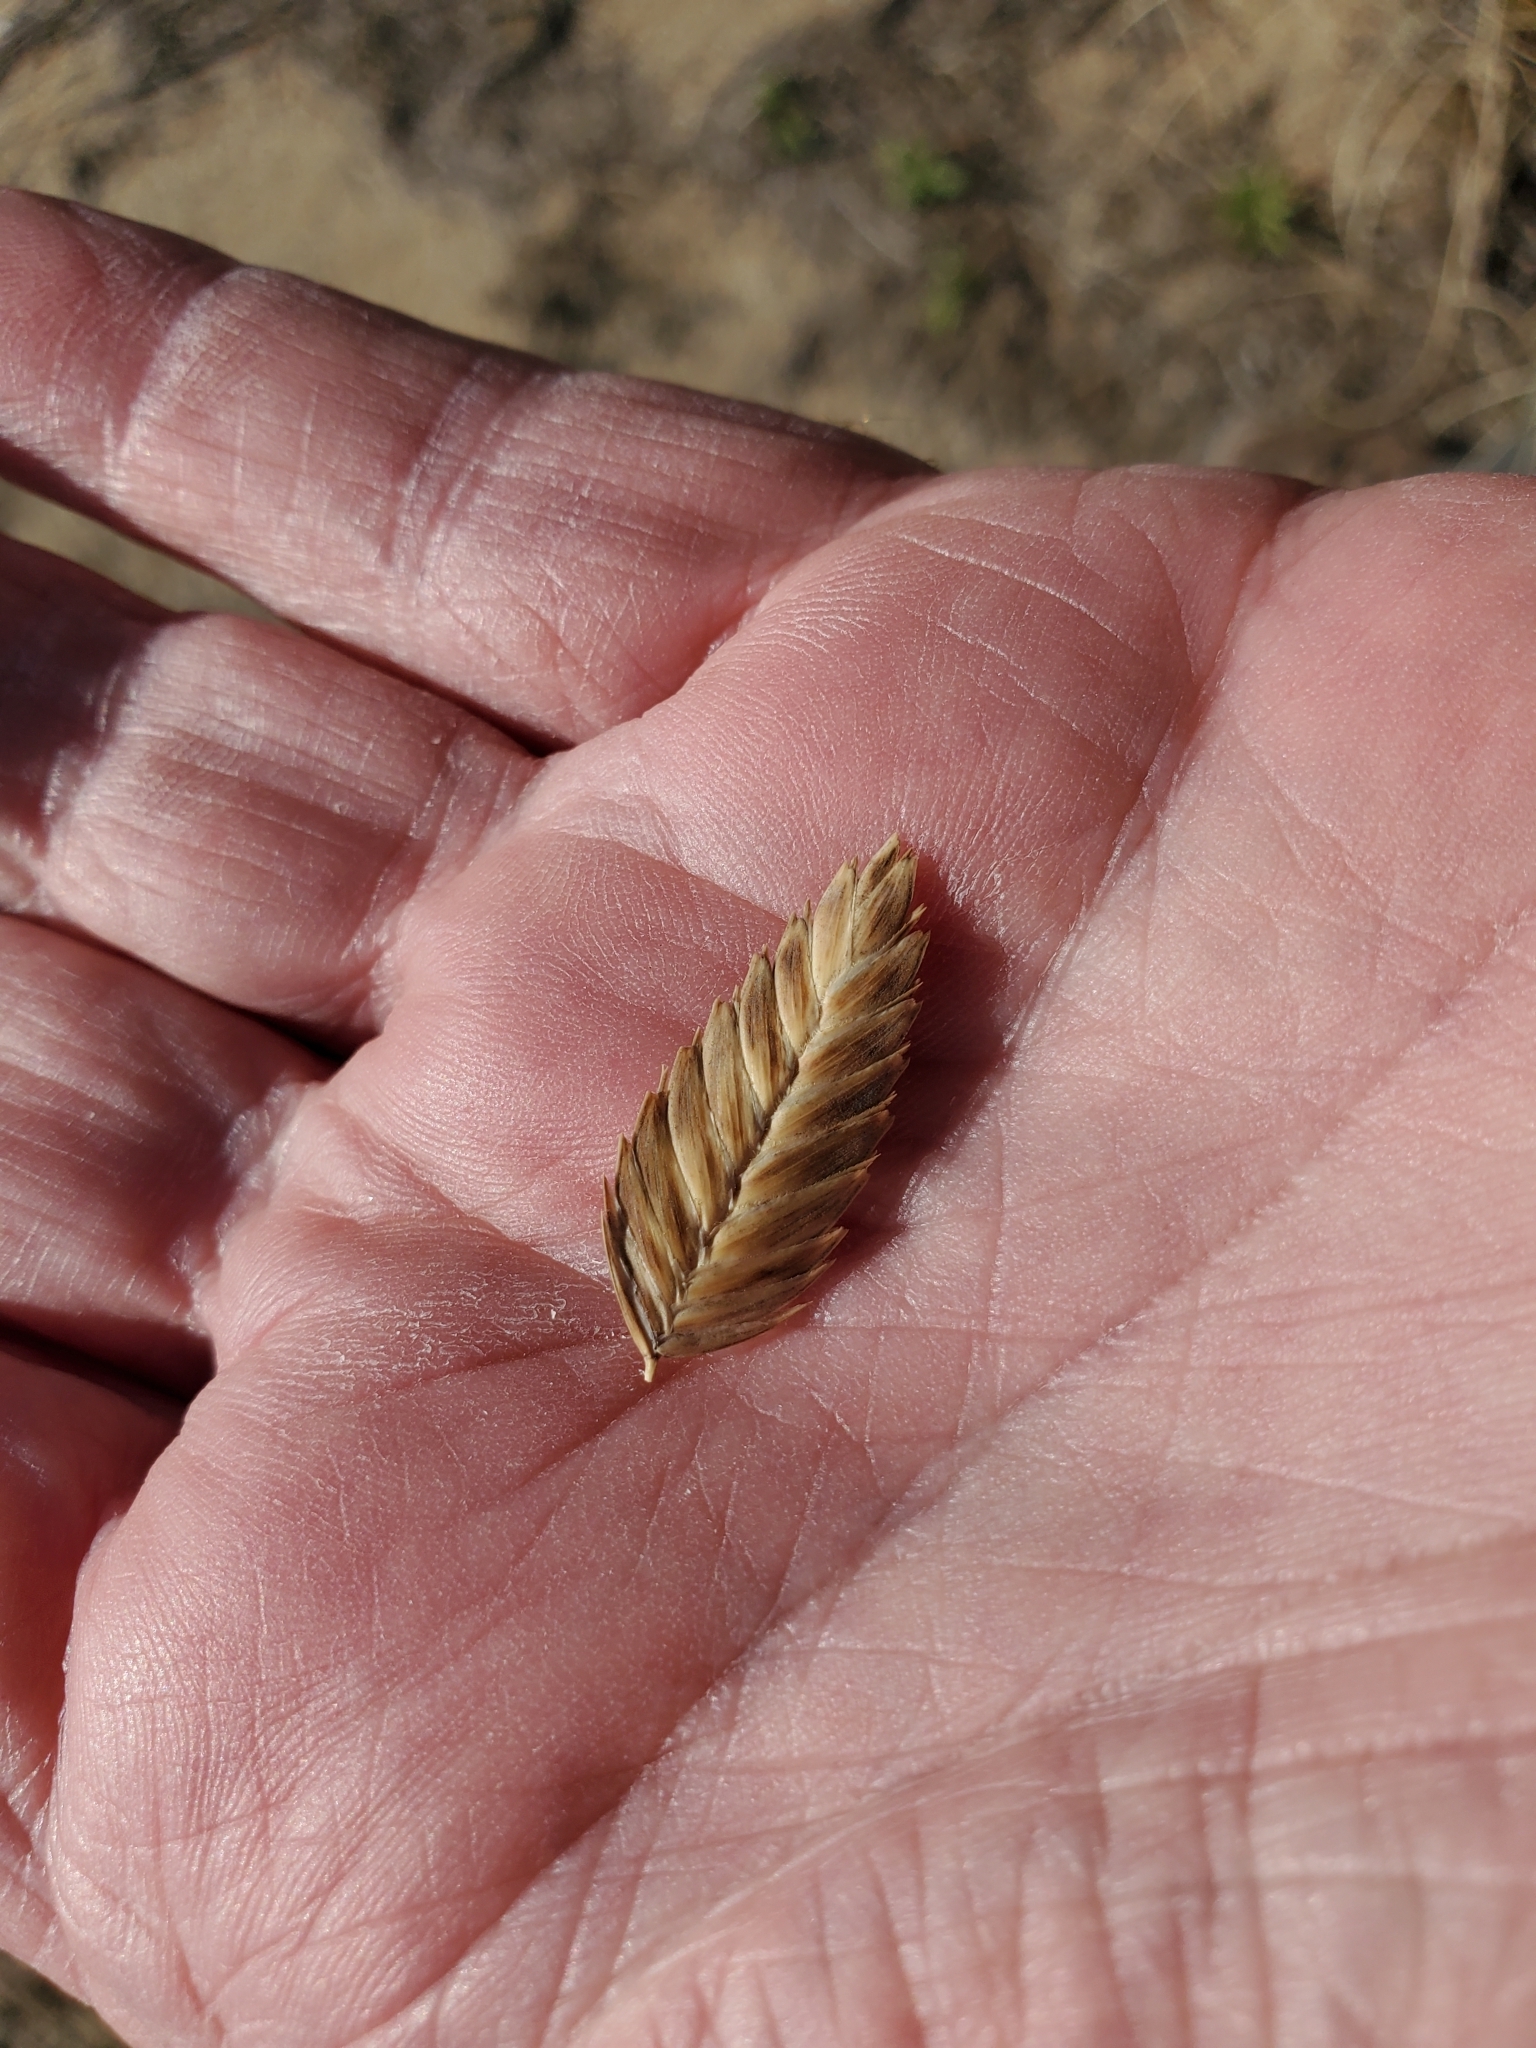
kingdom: Plantae
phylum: Tracheophyta
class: Liliopsida
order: Poales
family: Poaceae
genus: Uniola
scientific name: Uniola paniculata
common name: Seaside-oats
